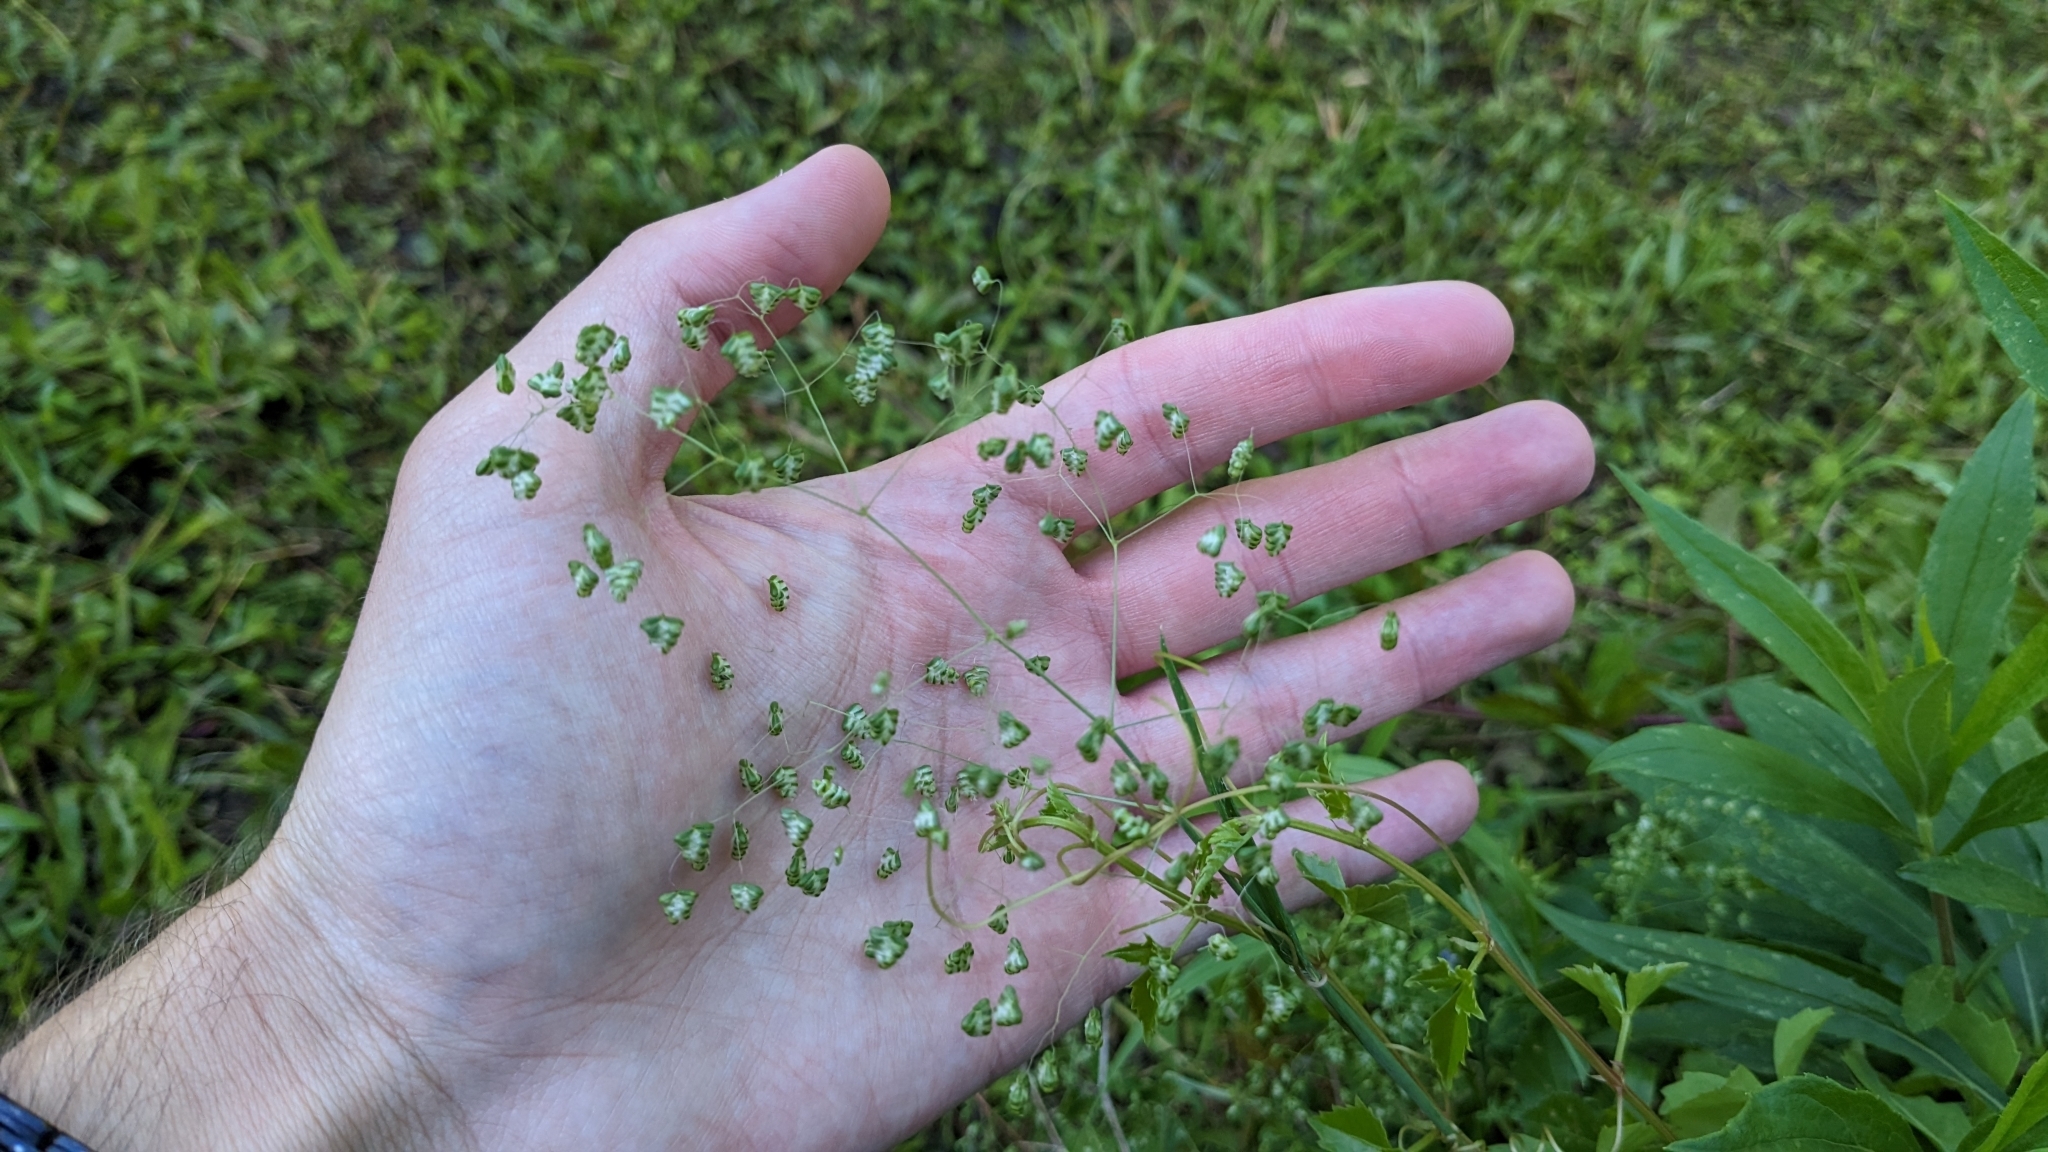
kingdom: Plantae
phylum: Tracheophyta
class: Liliopsida
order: Poales
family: Poaceae
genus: Briza
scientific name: Briza minor
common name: Lesser quaking-grass
